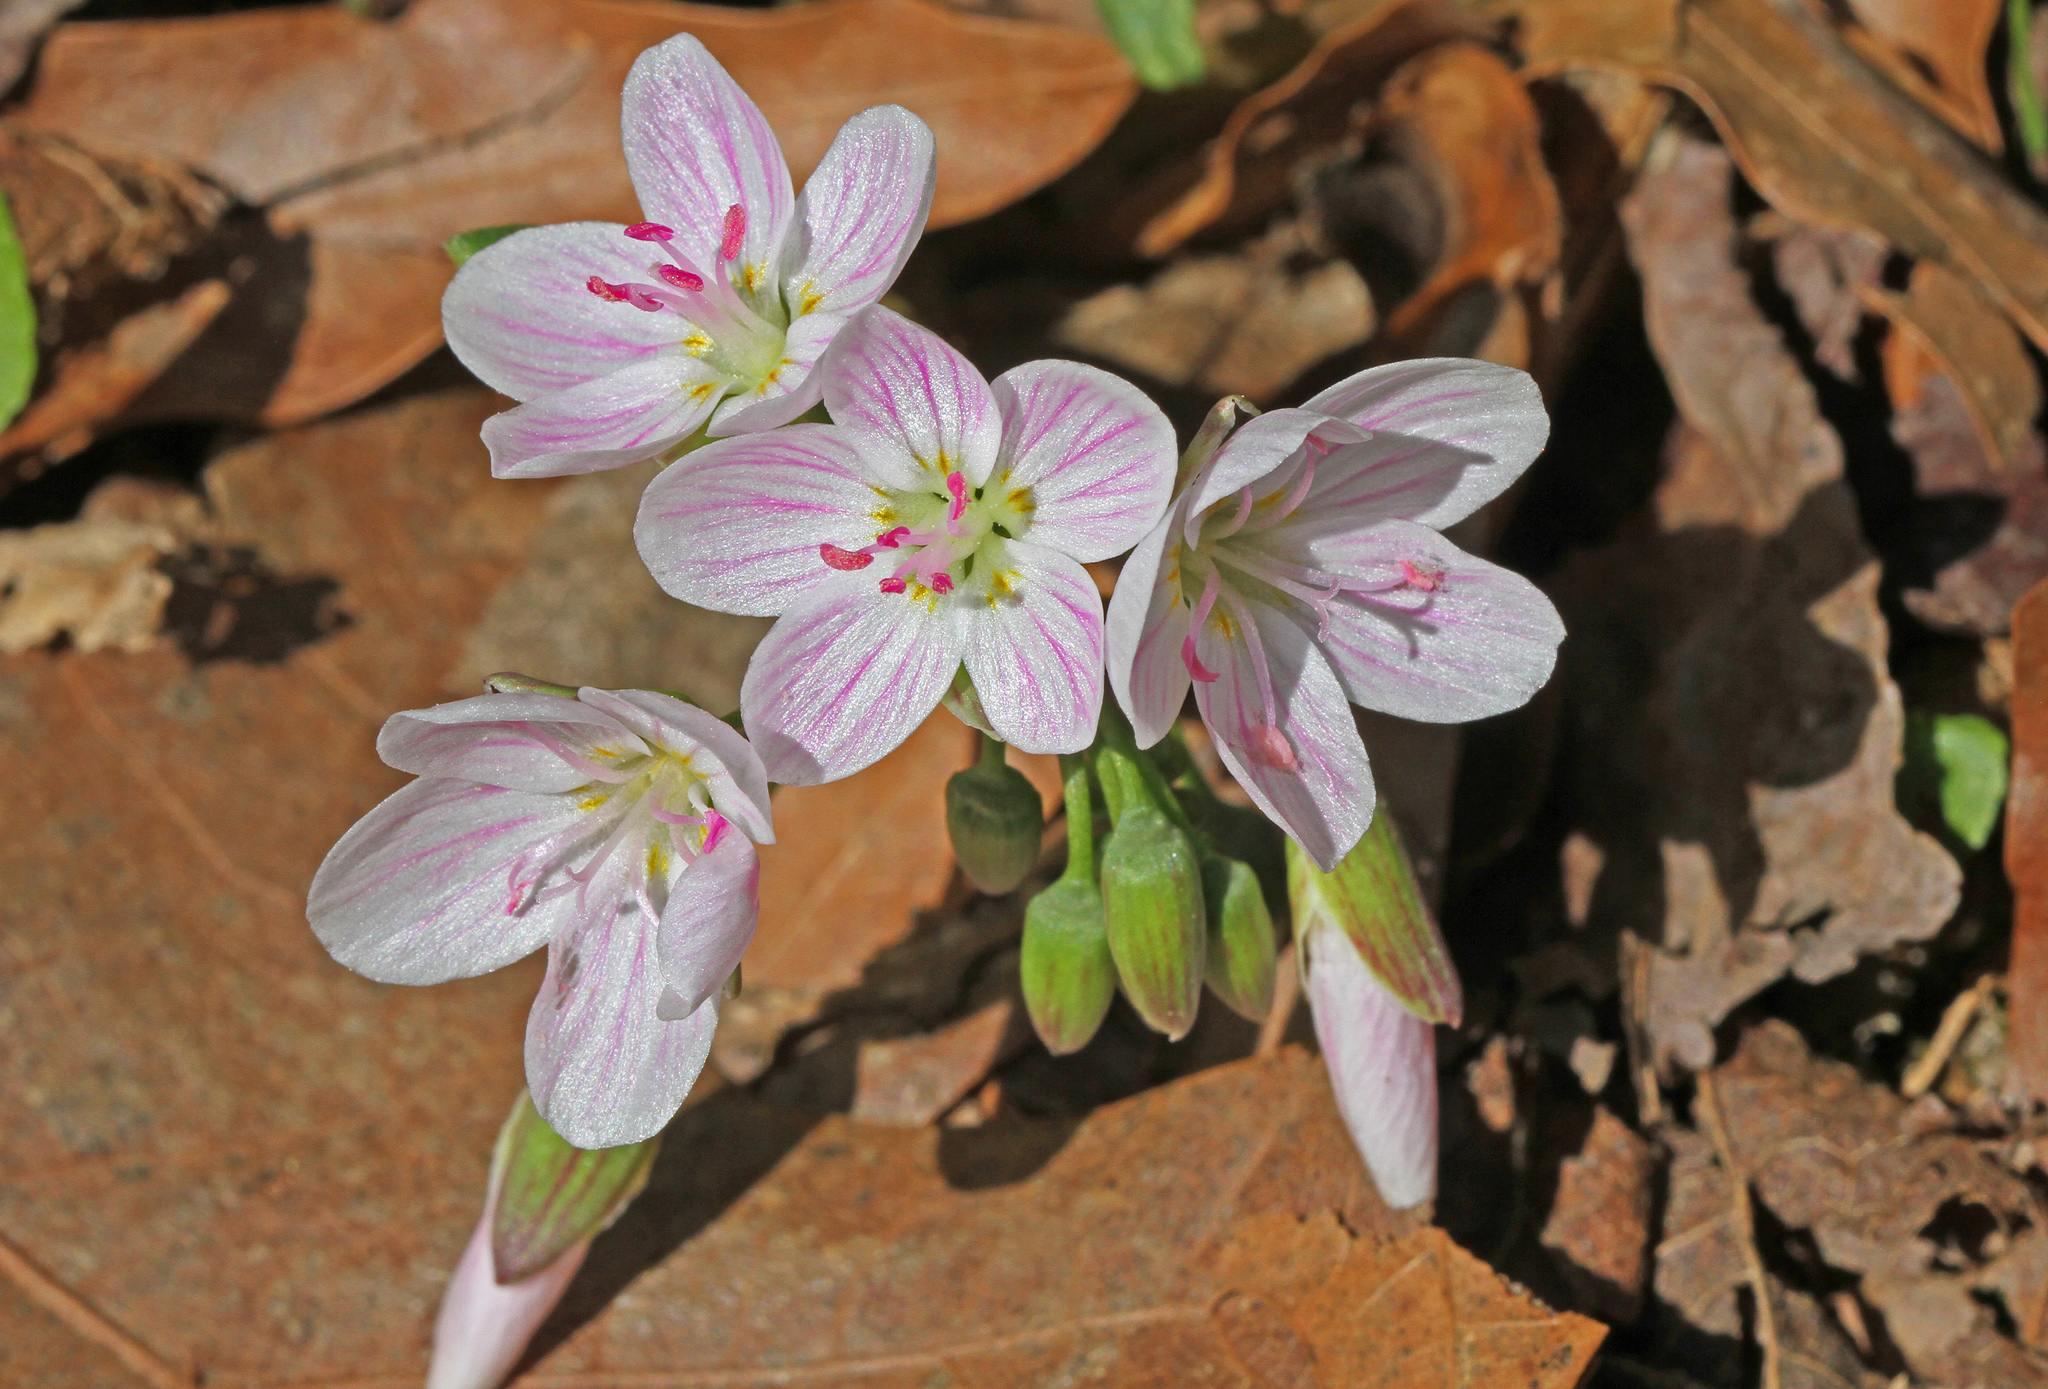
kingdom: Plantae
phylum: Tracheophyta
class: Magnoliopsida
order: Caryophyllales
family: Montiaceae
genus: Claytonia
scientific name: Claytonia virginica
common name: Virginia springbeauty
